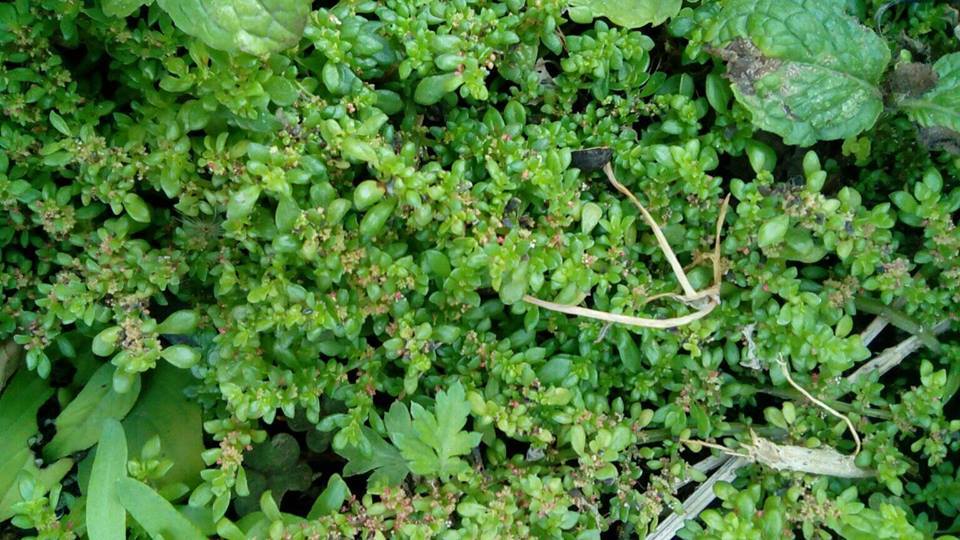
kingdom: Plantae
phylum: Tracheophyta
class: Magnoliopsida
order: Rosales
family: Urticaceae
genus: Pilea
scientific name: Pilea microphylla
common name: Artillery-plant
